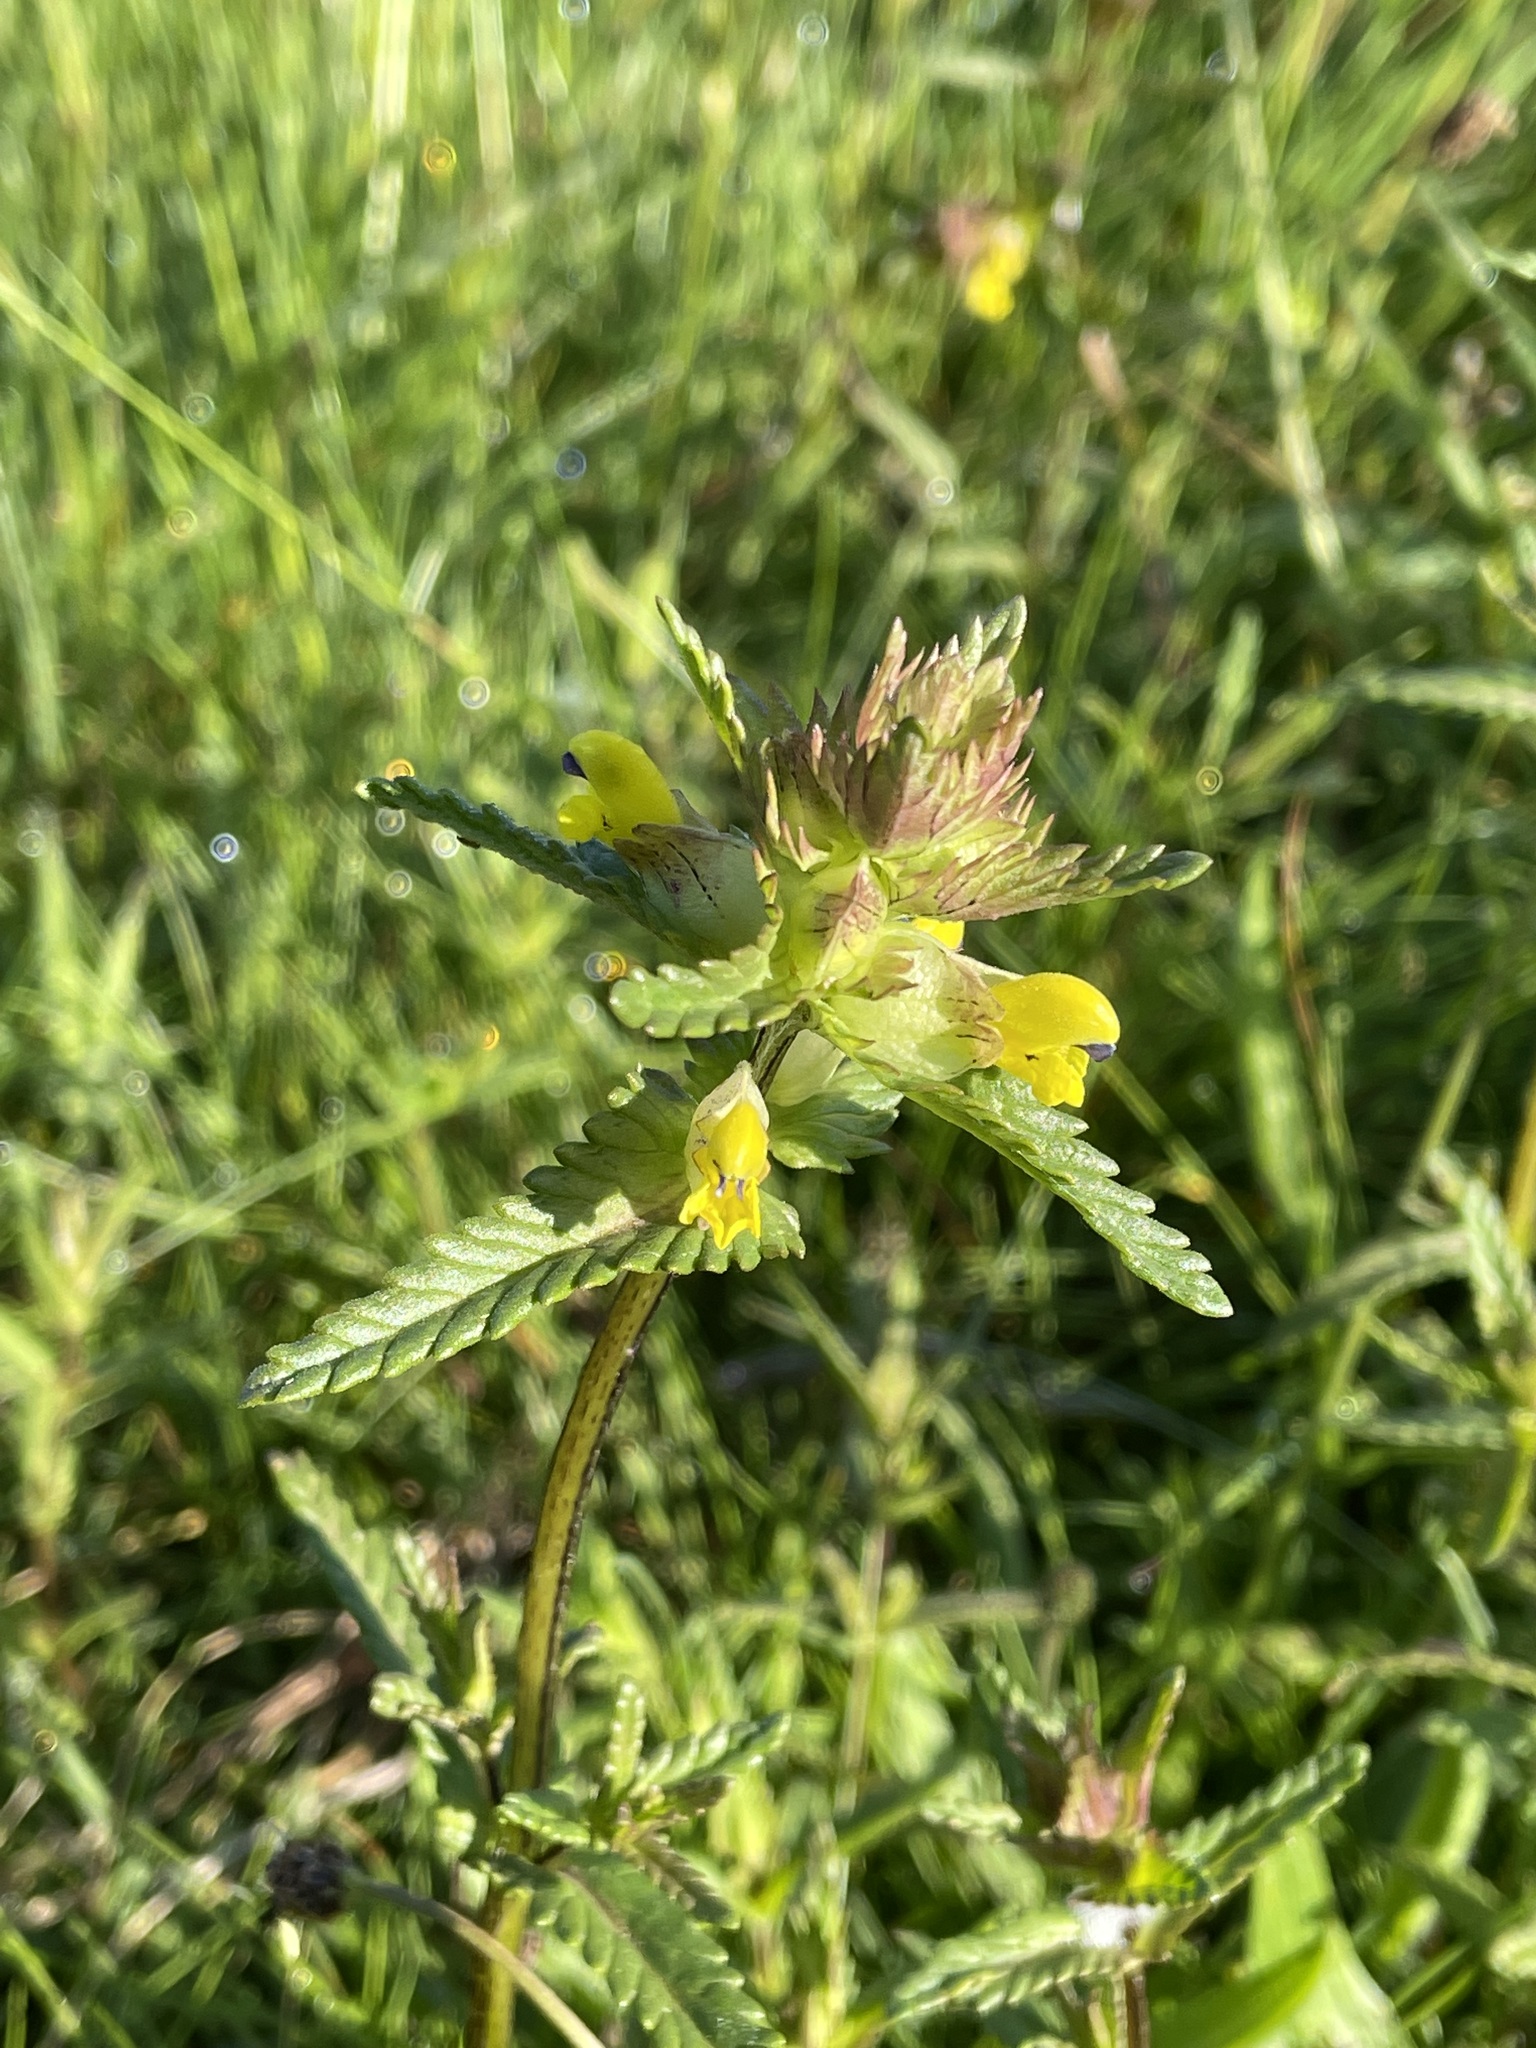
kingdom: Plantae
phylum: Tracheophyta
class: Magnoliopsida
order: Lamiales
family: Orobanchaceae
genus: Rhinanthus
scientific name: Rhinanthus minor
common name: Yellow-rattle
